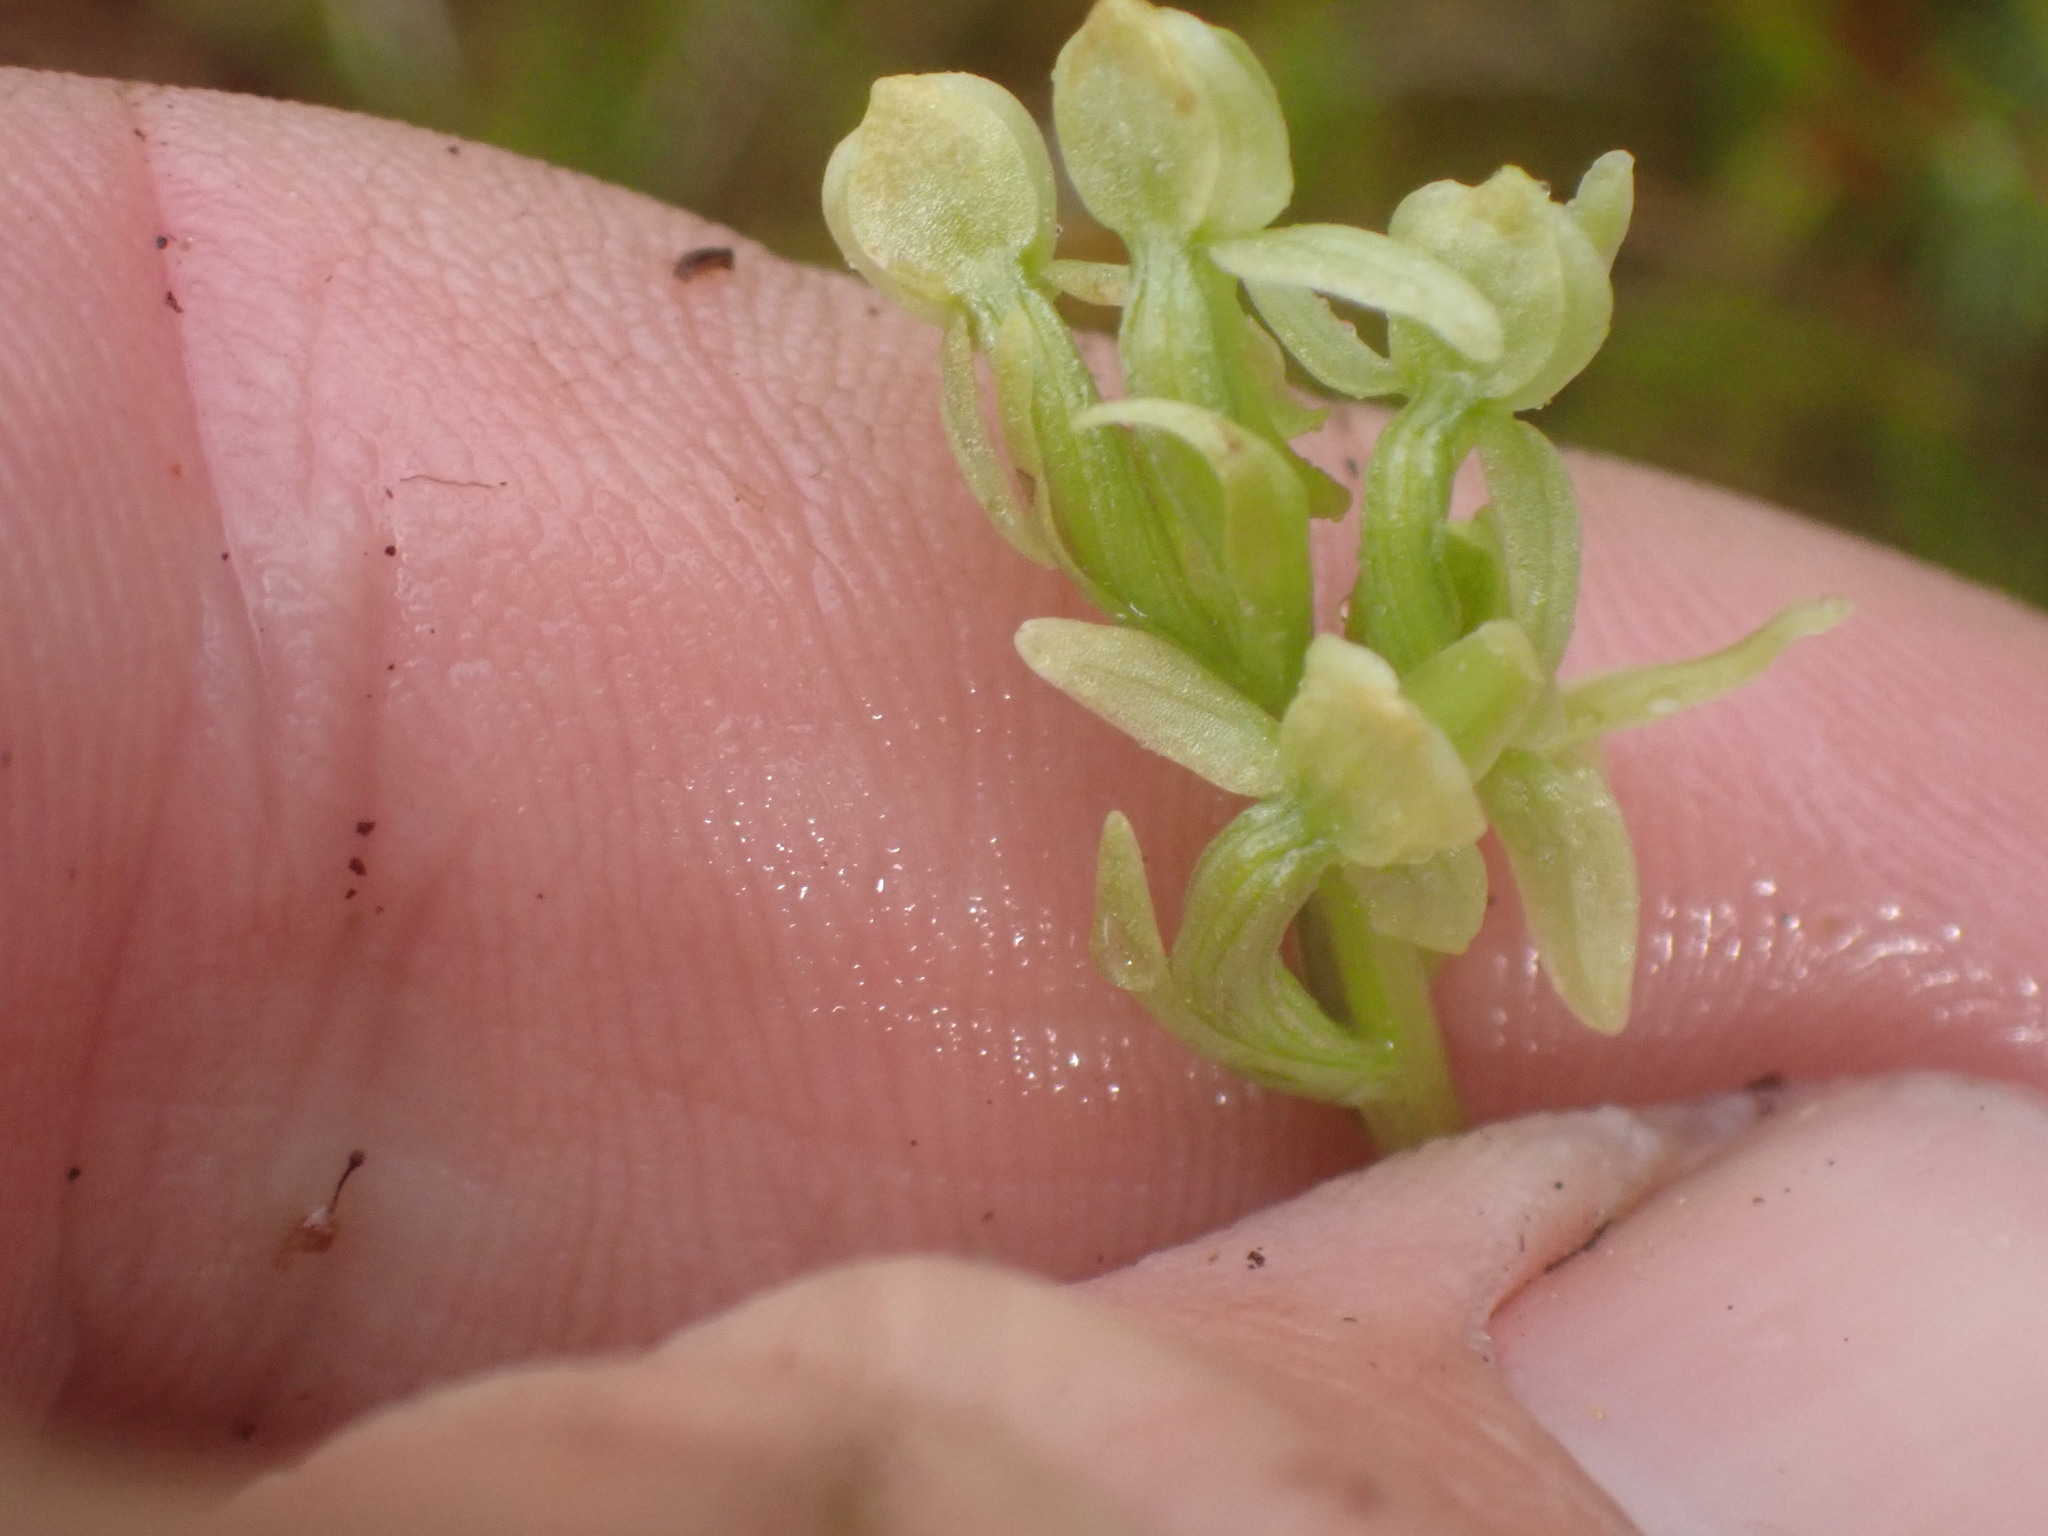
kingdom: Plantae
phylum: Tracheophyta
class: Liliopsida
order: Asparagales
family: Orchidaceae
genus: Platanthera
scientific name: Platanthera huronensis
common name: Fragrant green orchid
